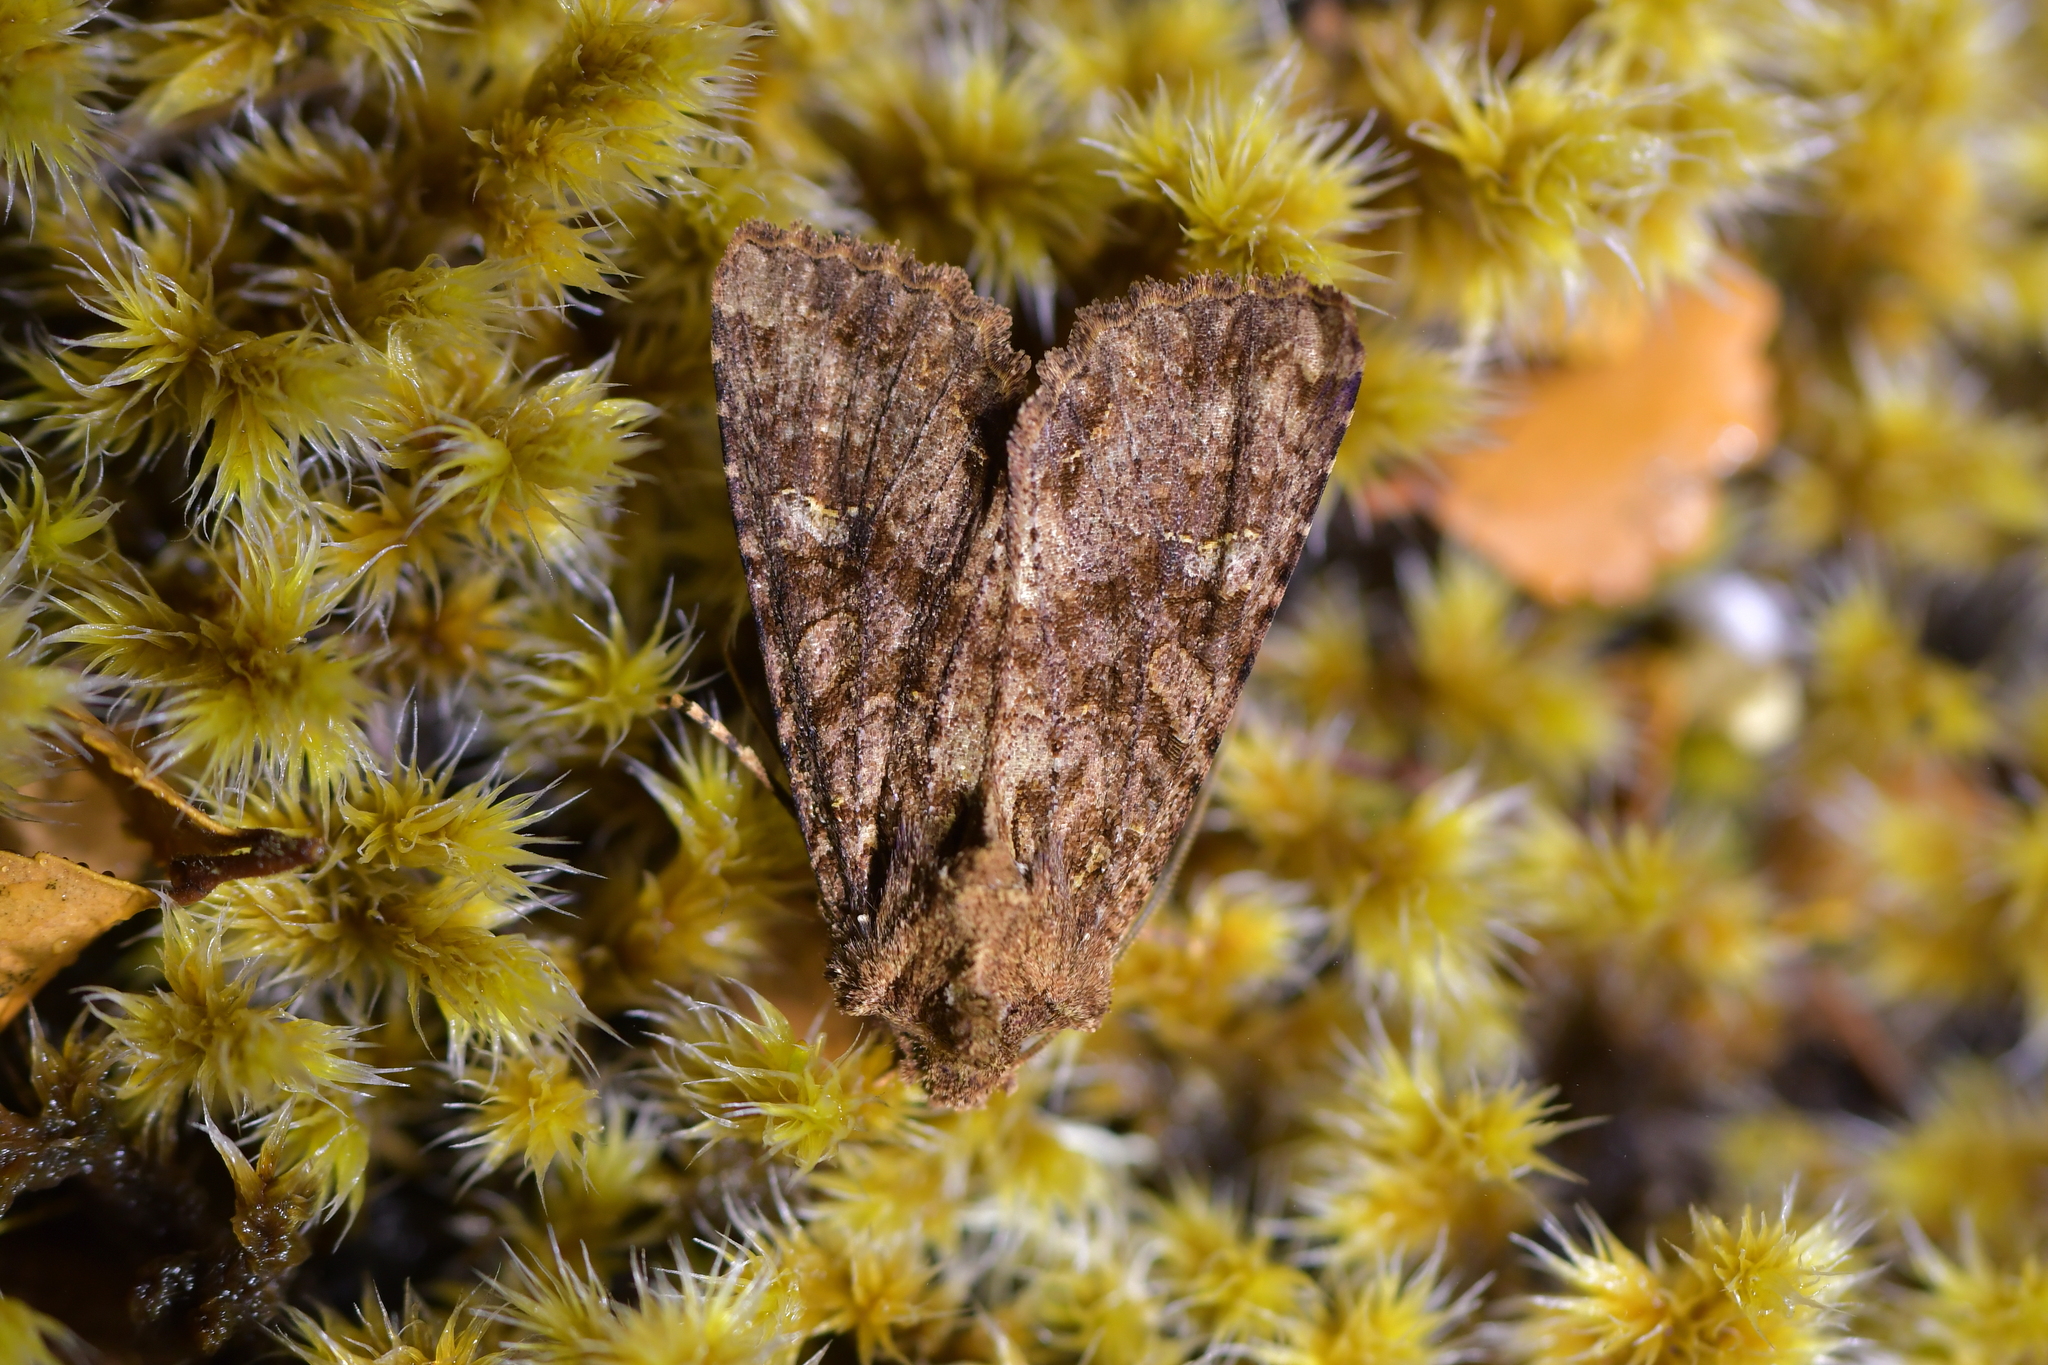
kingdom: Animalia
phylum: Arthropoda
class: Insecta
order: Lepidoptera
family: Noctuidae
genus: Meterana
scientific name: Meterana
